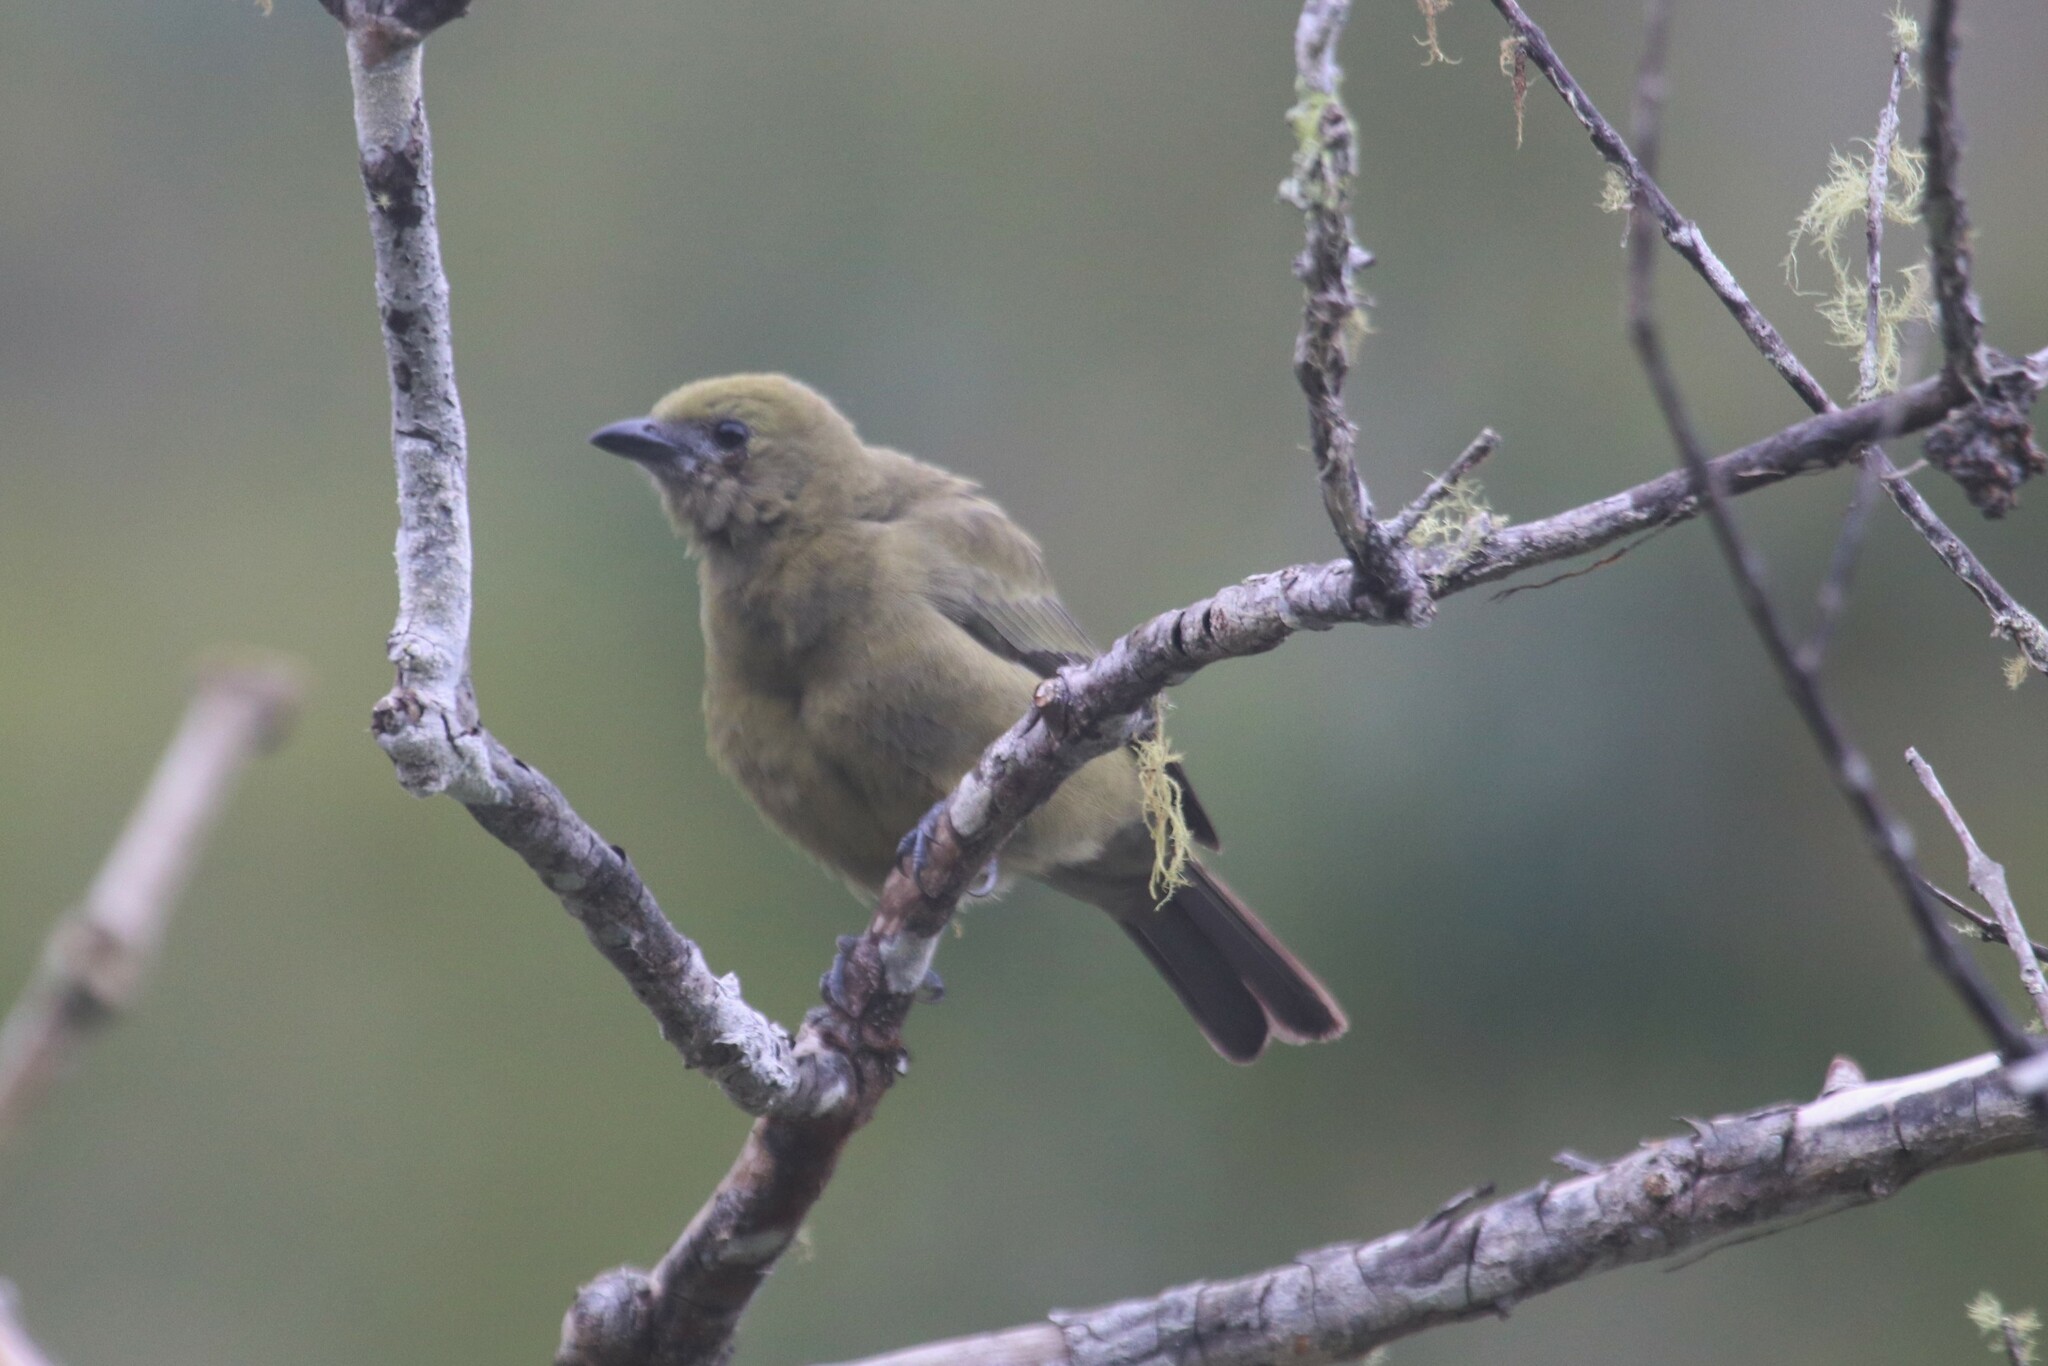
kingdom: Animalia
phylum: Chordata
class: Aves
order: Passeriformes
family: Thraupidae
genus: Thraupis
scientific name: Thraupis palmarum
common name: Palm tanager
